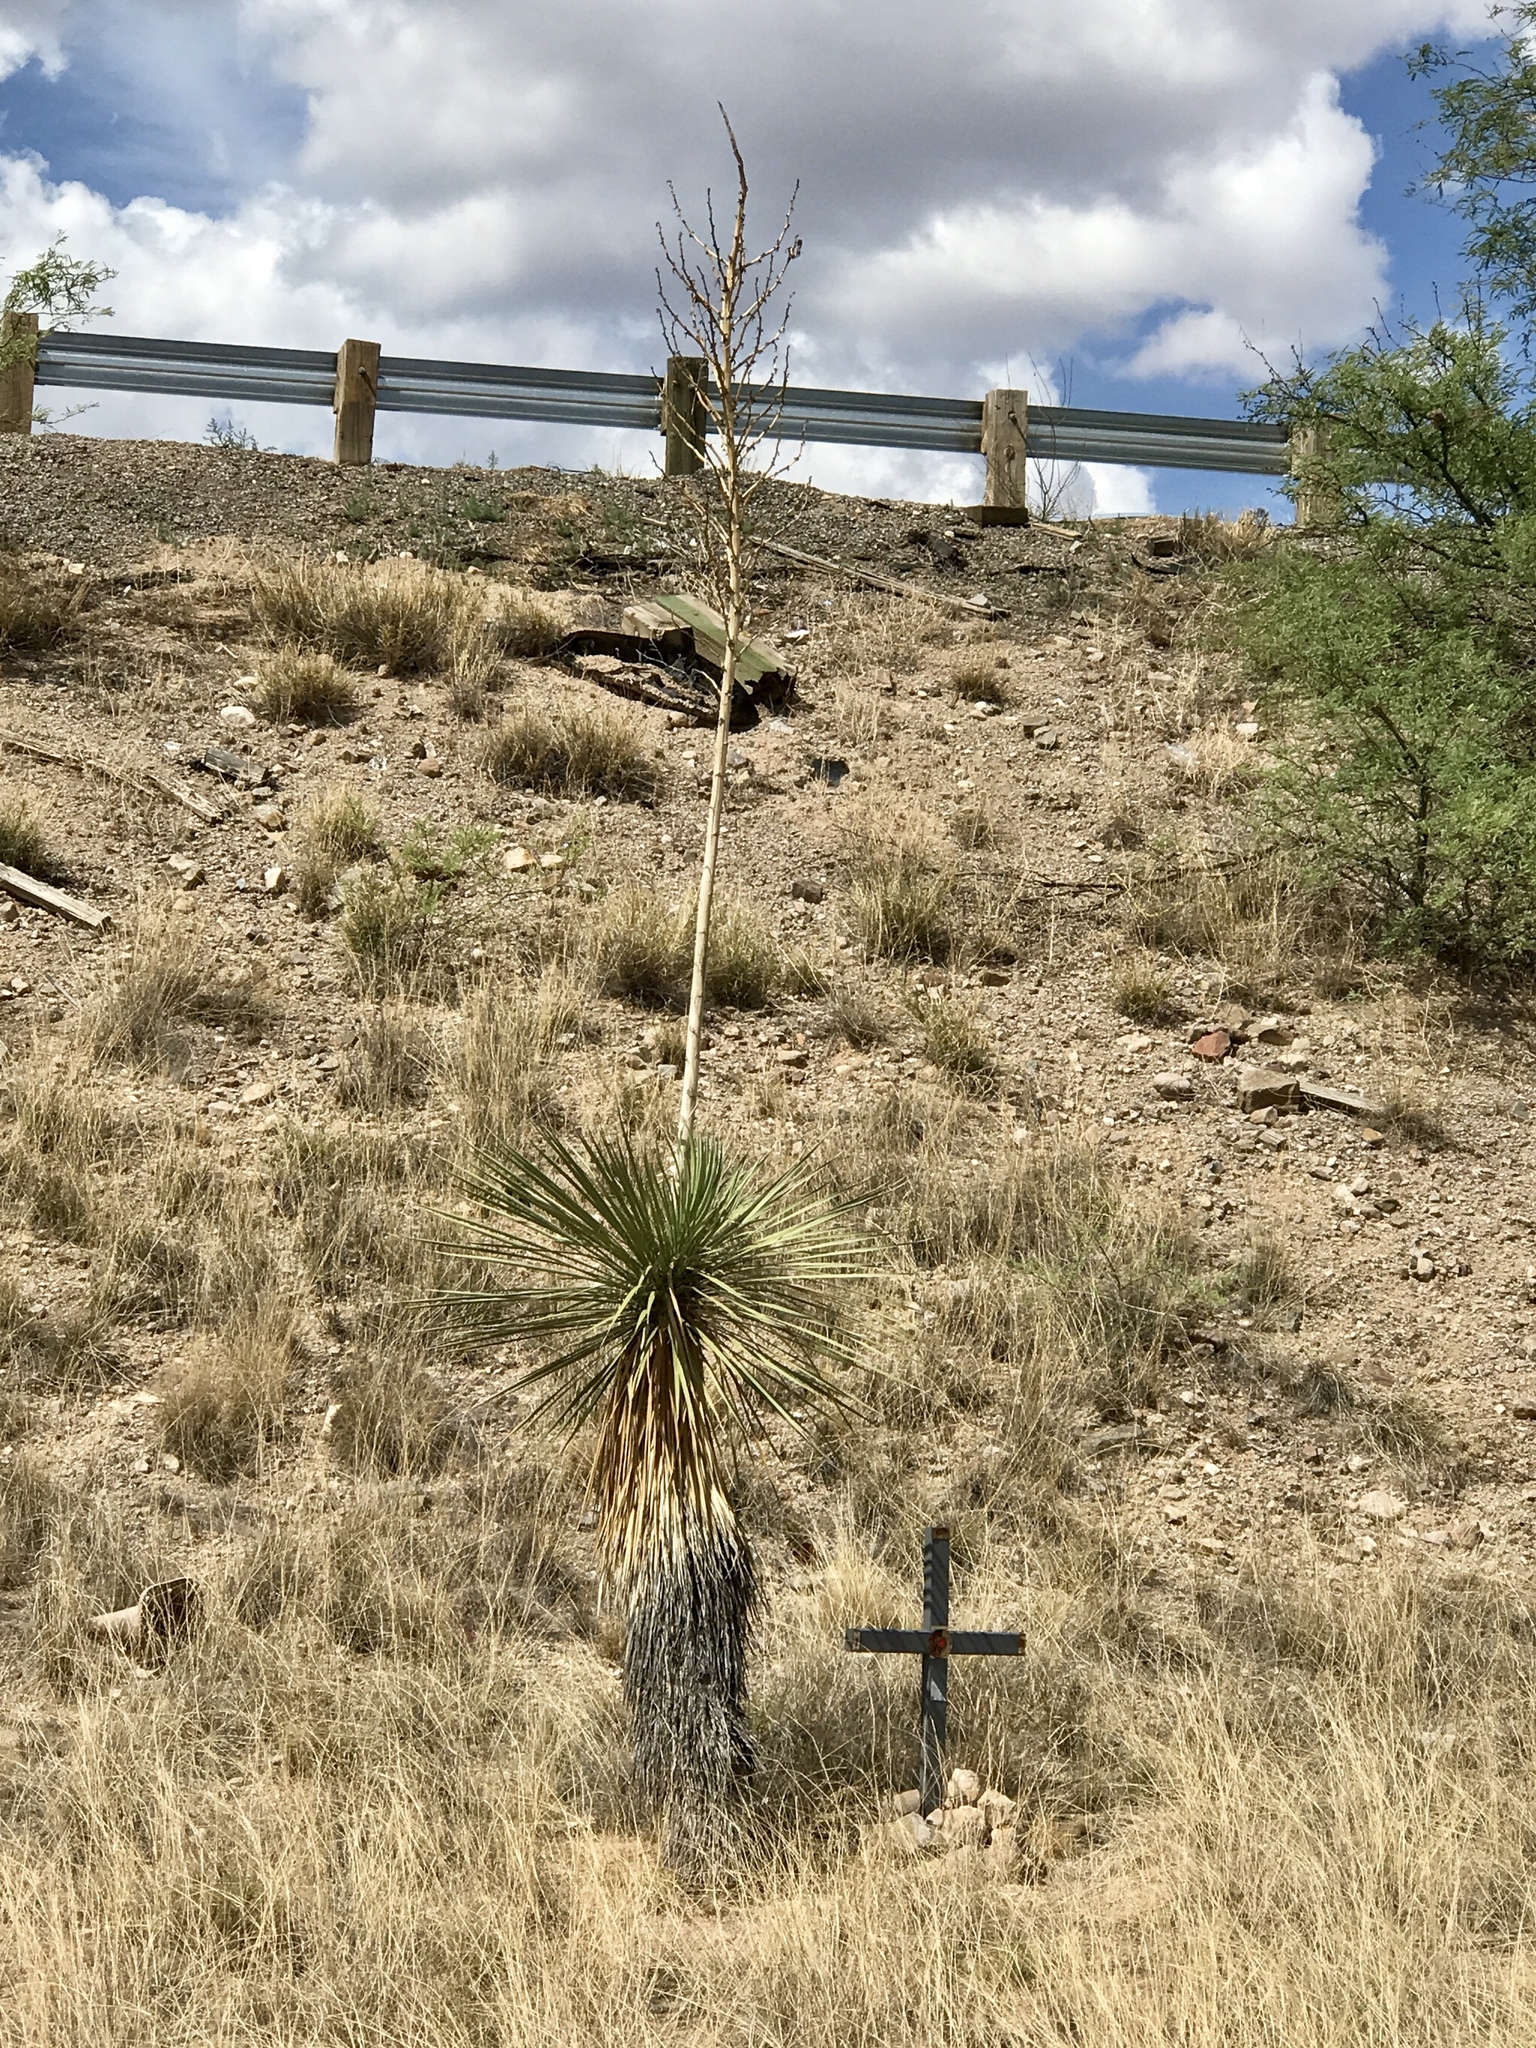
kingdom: Plantae
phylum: Tracheophyta
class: Liliopsida
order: Asparagales
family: Asparagaceae
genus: Yucca
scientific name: Yucca elata
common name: Palmella
